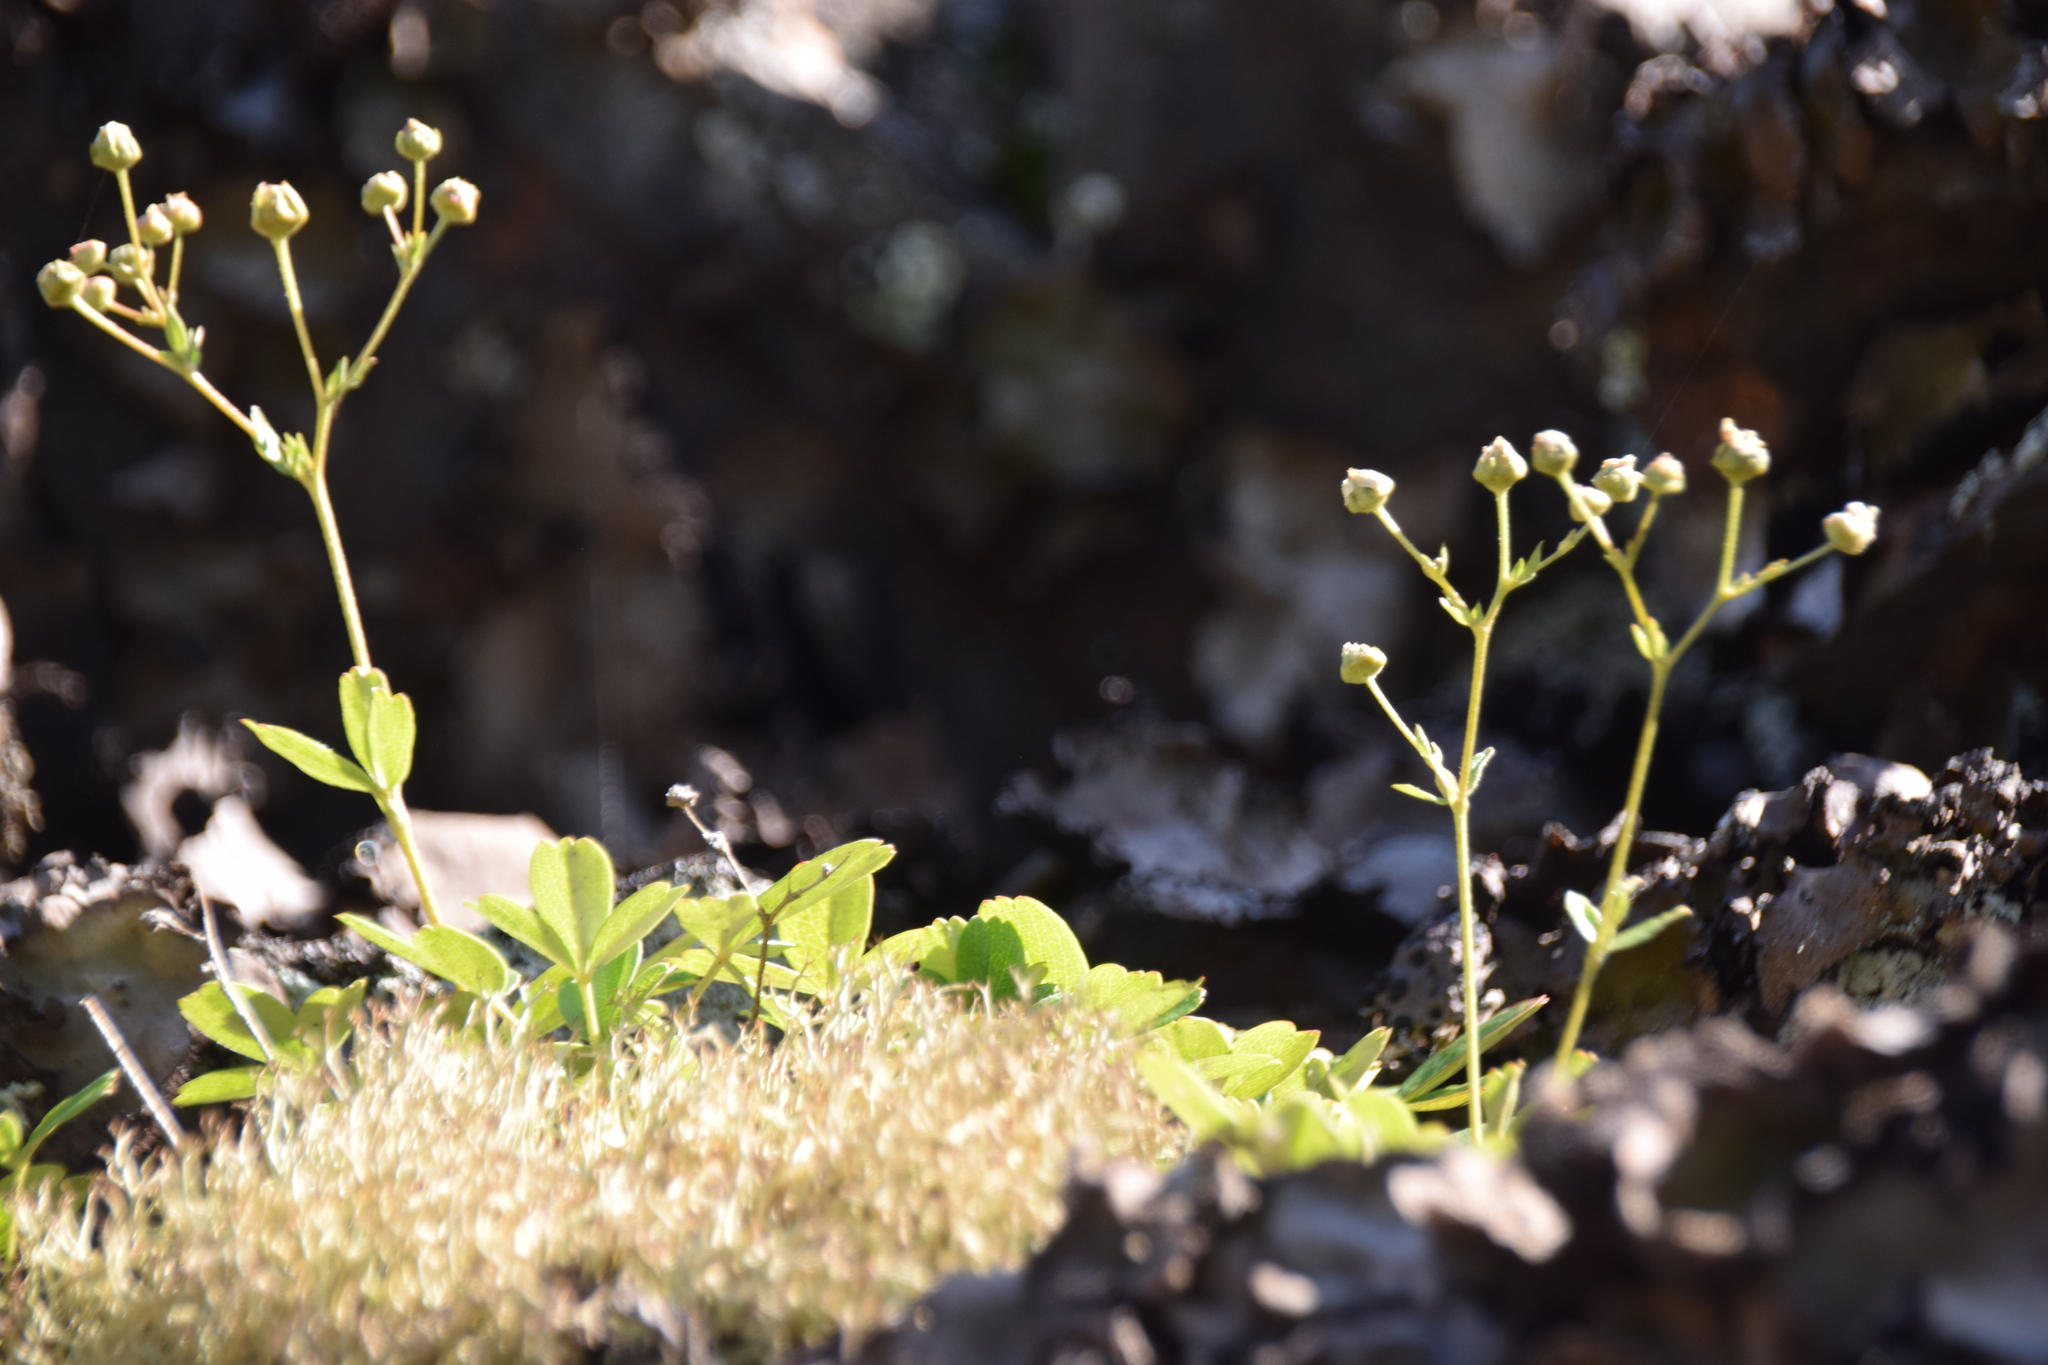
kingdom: Plantae
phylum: Tracheophyta
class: Magnoliopsida
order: Rosales
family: Rosaceae
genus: Sibbaldia
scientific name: Sibbaldia tridentata
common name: Three-toothed cinquefoil
